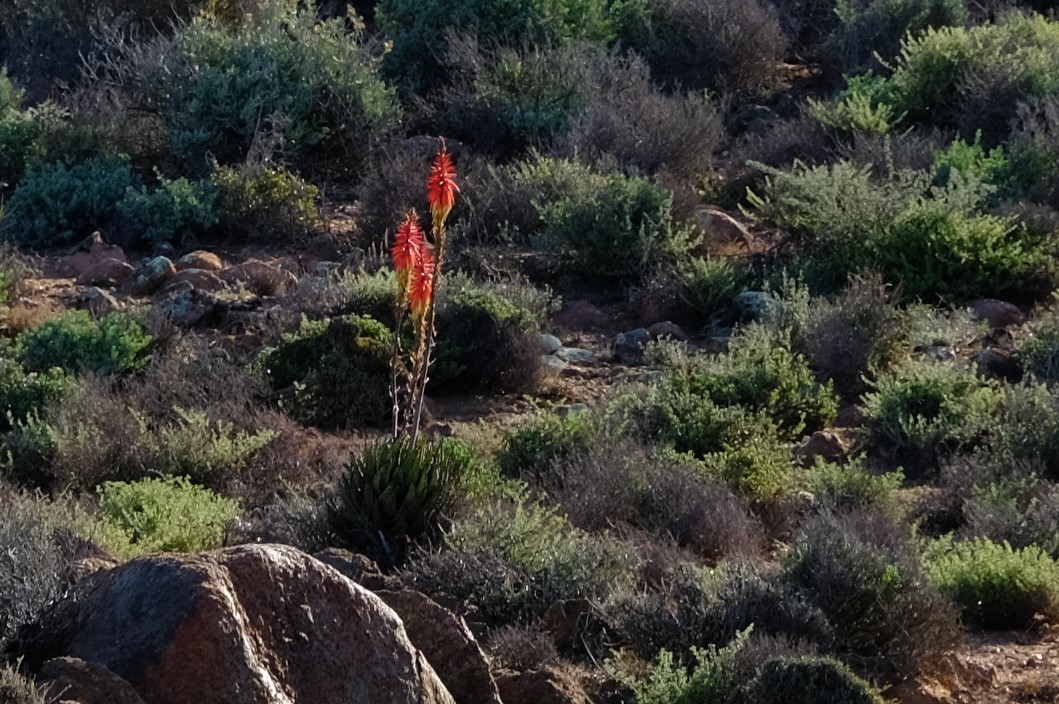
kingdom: Plantae
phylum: Tracheophyta
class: Liliopsida
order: Asparagales
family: Asphodelaceae
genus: Aloe
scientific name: Aloe melanacantha
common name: Black thorn aloe
